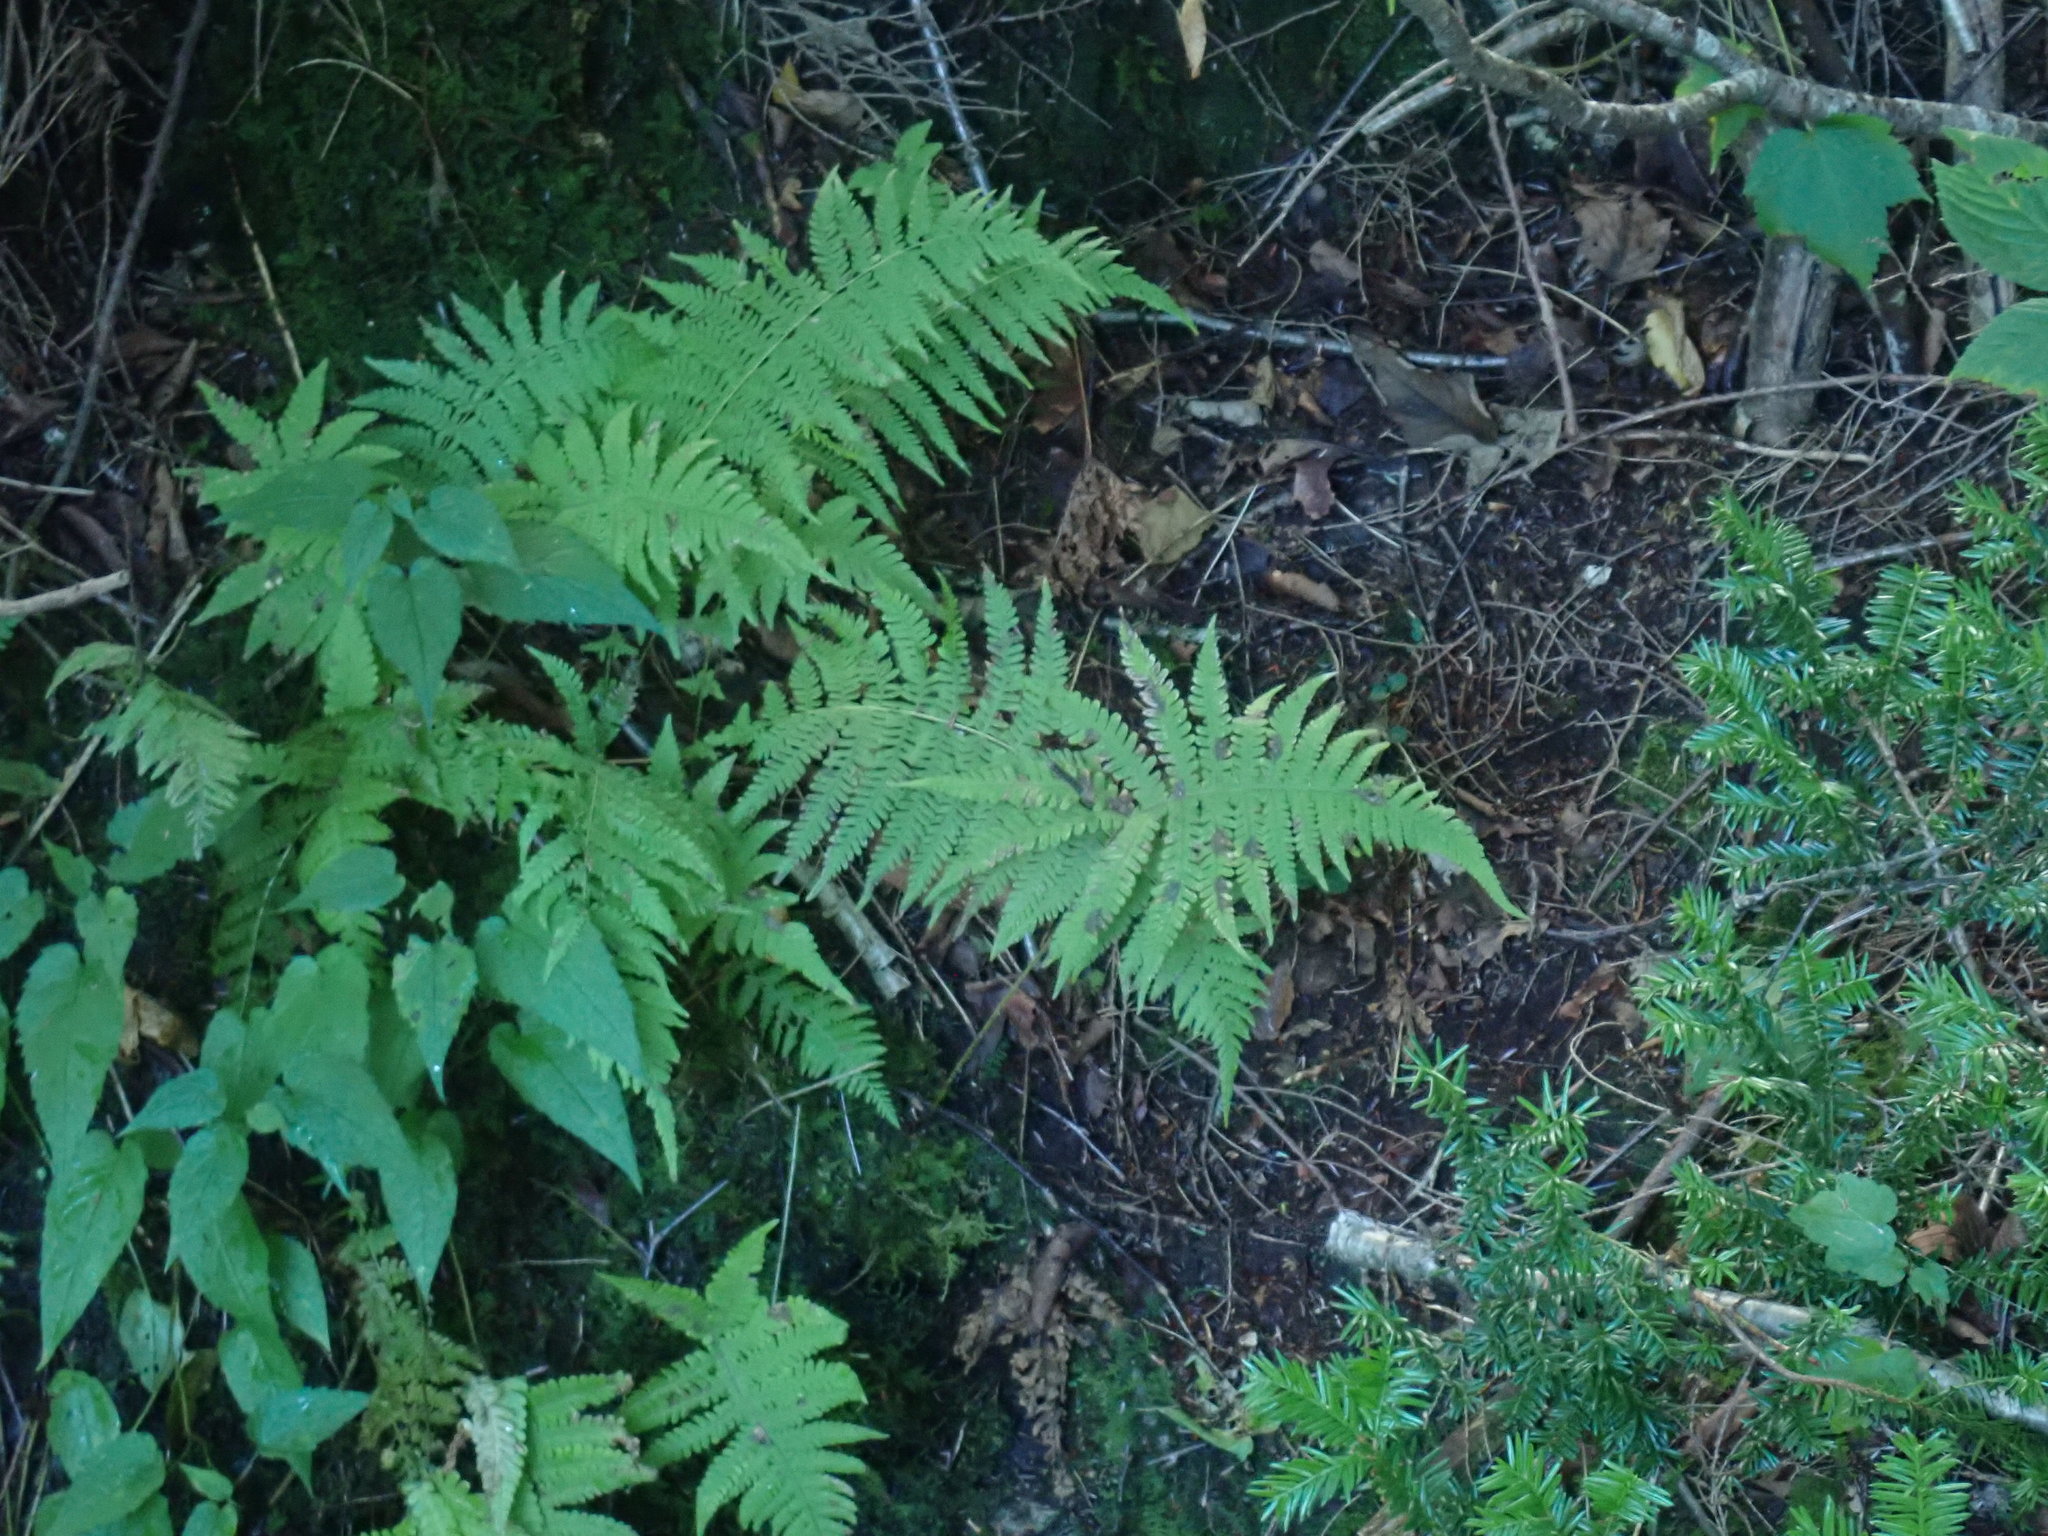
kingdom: Plantae
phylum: Tracheophyta
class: Polypodiopsida
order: Polypodiales
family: Thelypteridaceae
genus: Phegopteris
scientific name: Phegopteris connectilis
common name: Beech fern
